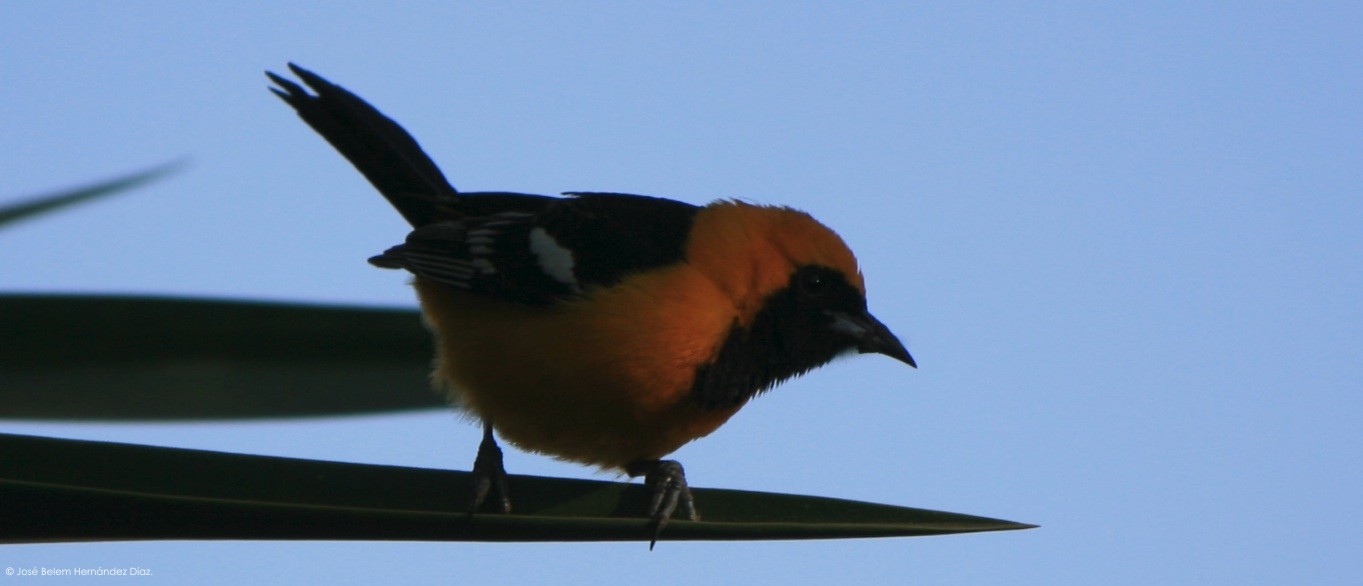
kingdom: Animalia
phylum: Chordata
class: Aves
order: Passeriformes
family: Icteridae
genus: Icterus
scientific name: Icterus cucullatus
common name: Hooded oriole
